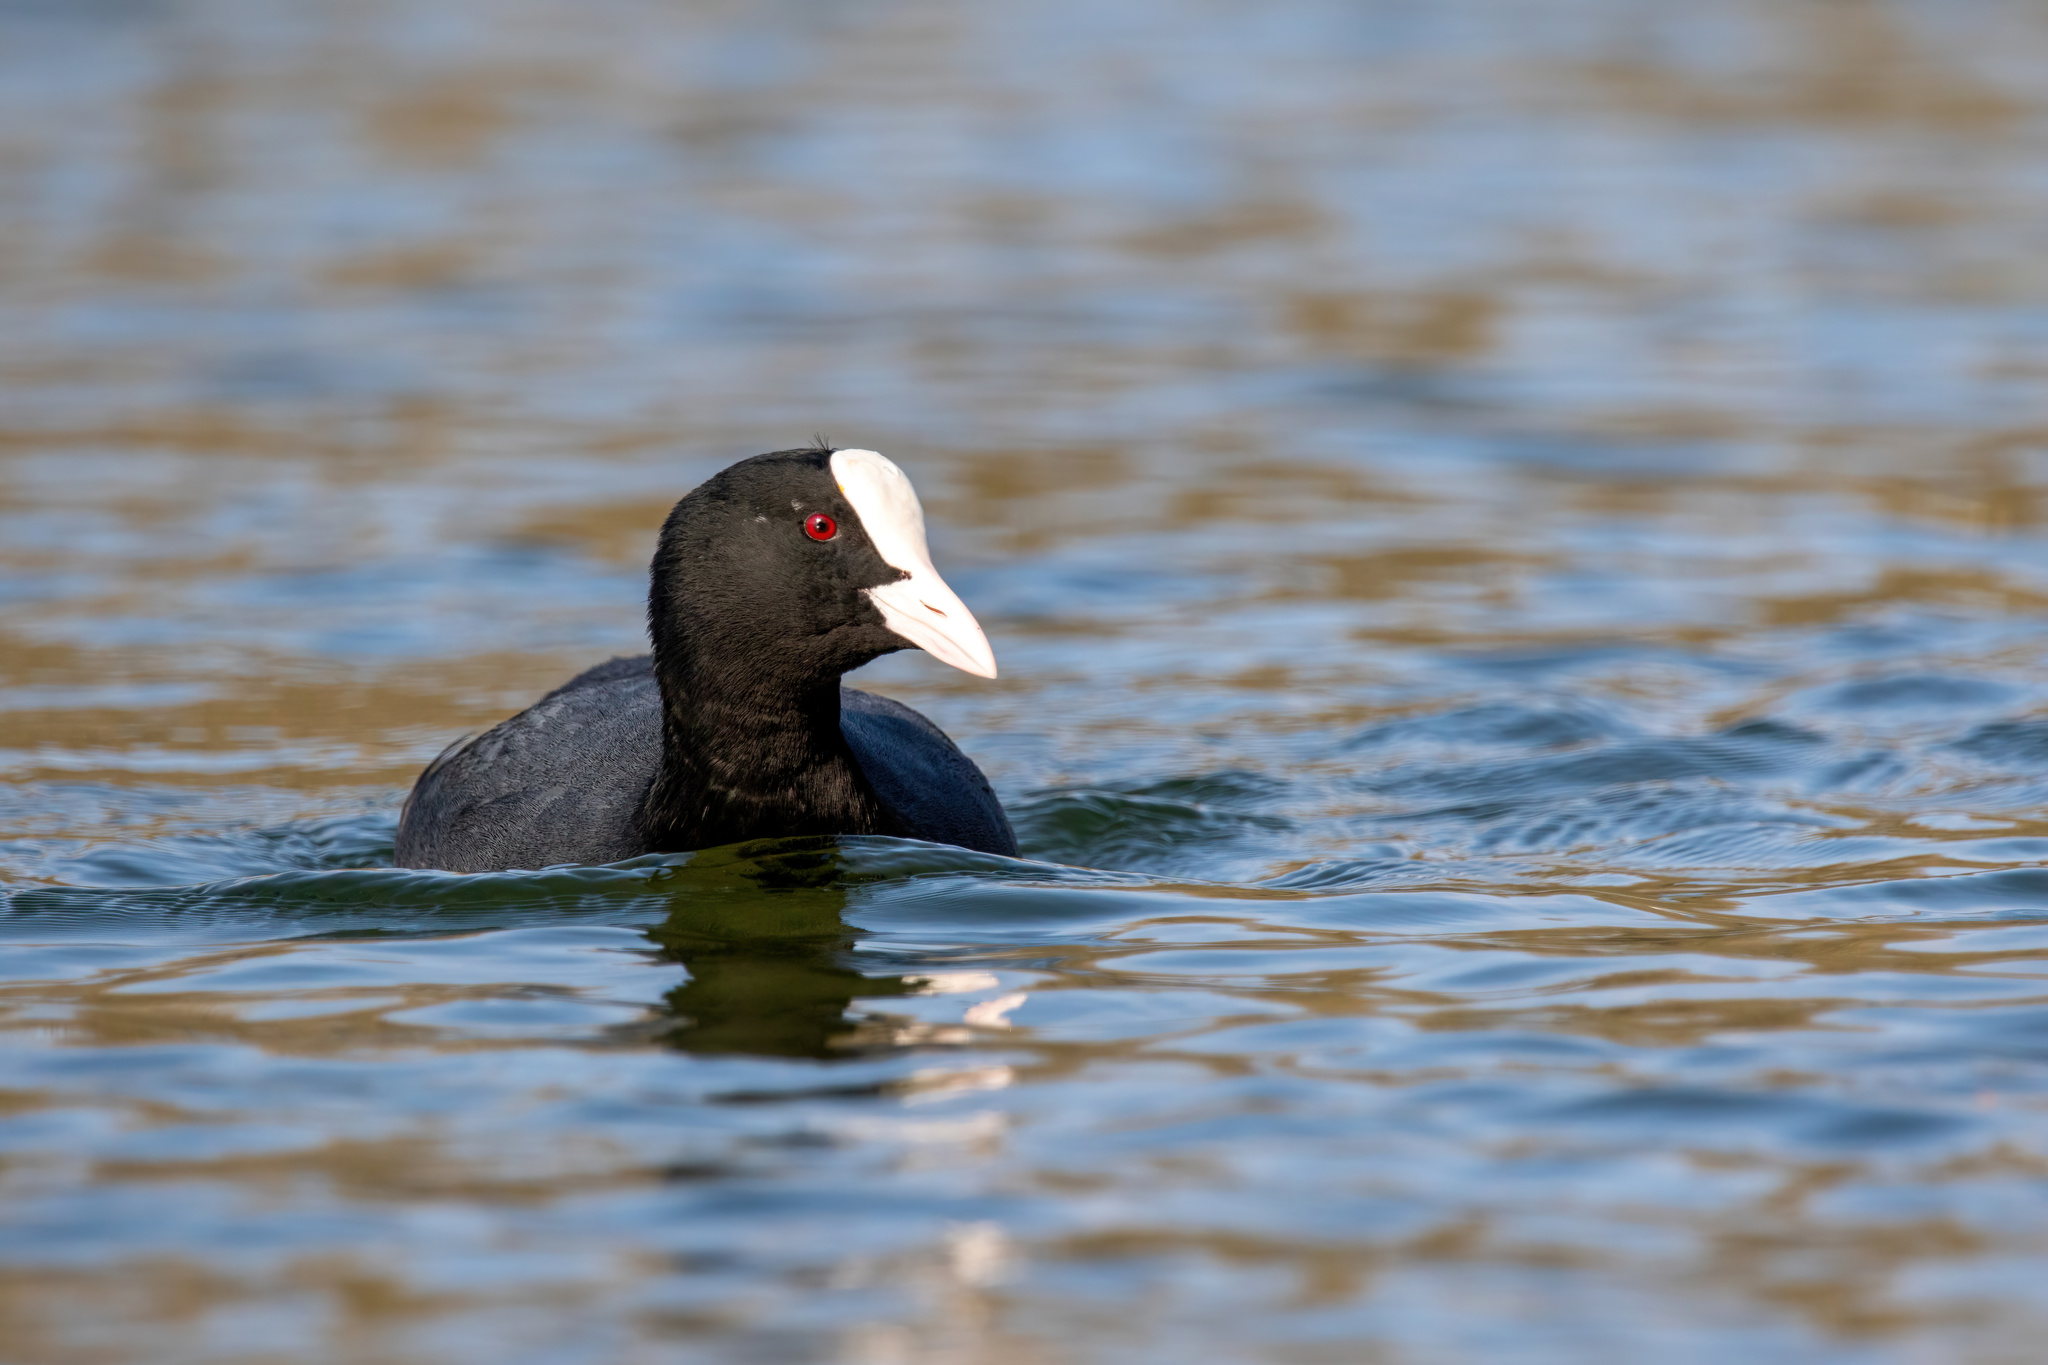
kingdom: Animalia
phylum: Chordata
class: Aves
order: Gruiformes
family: Rallidae
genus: Fulica
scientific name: Fulica atra
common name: Eurasian coot
